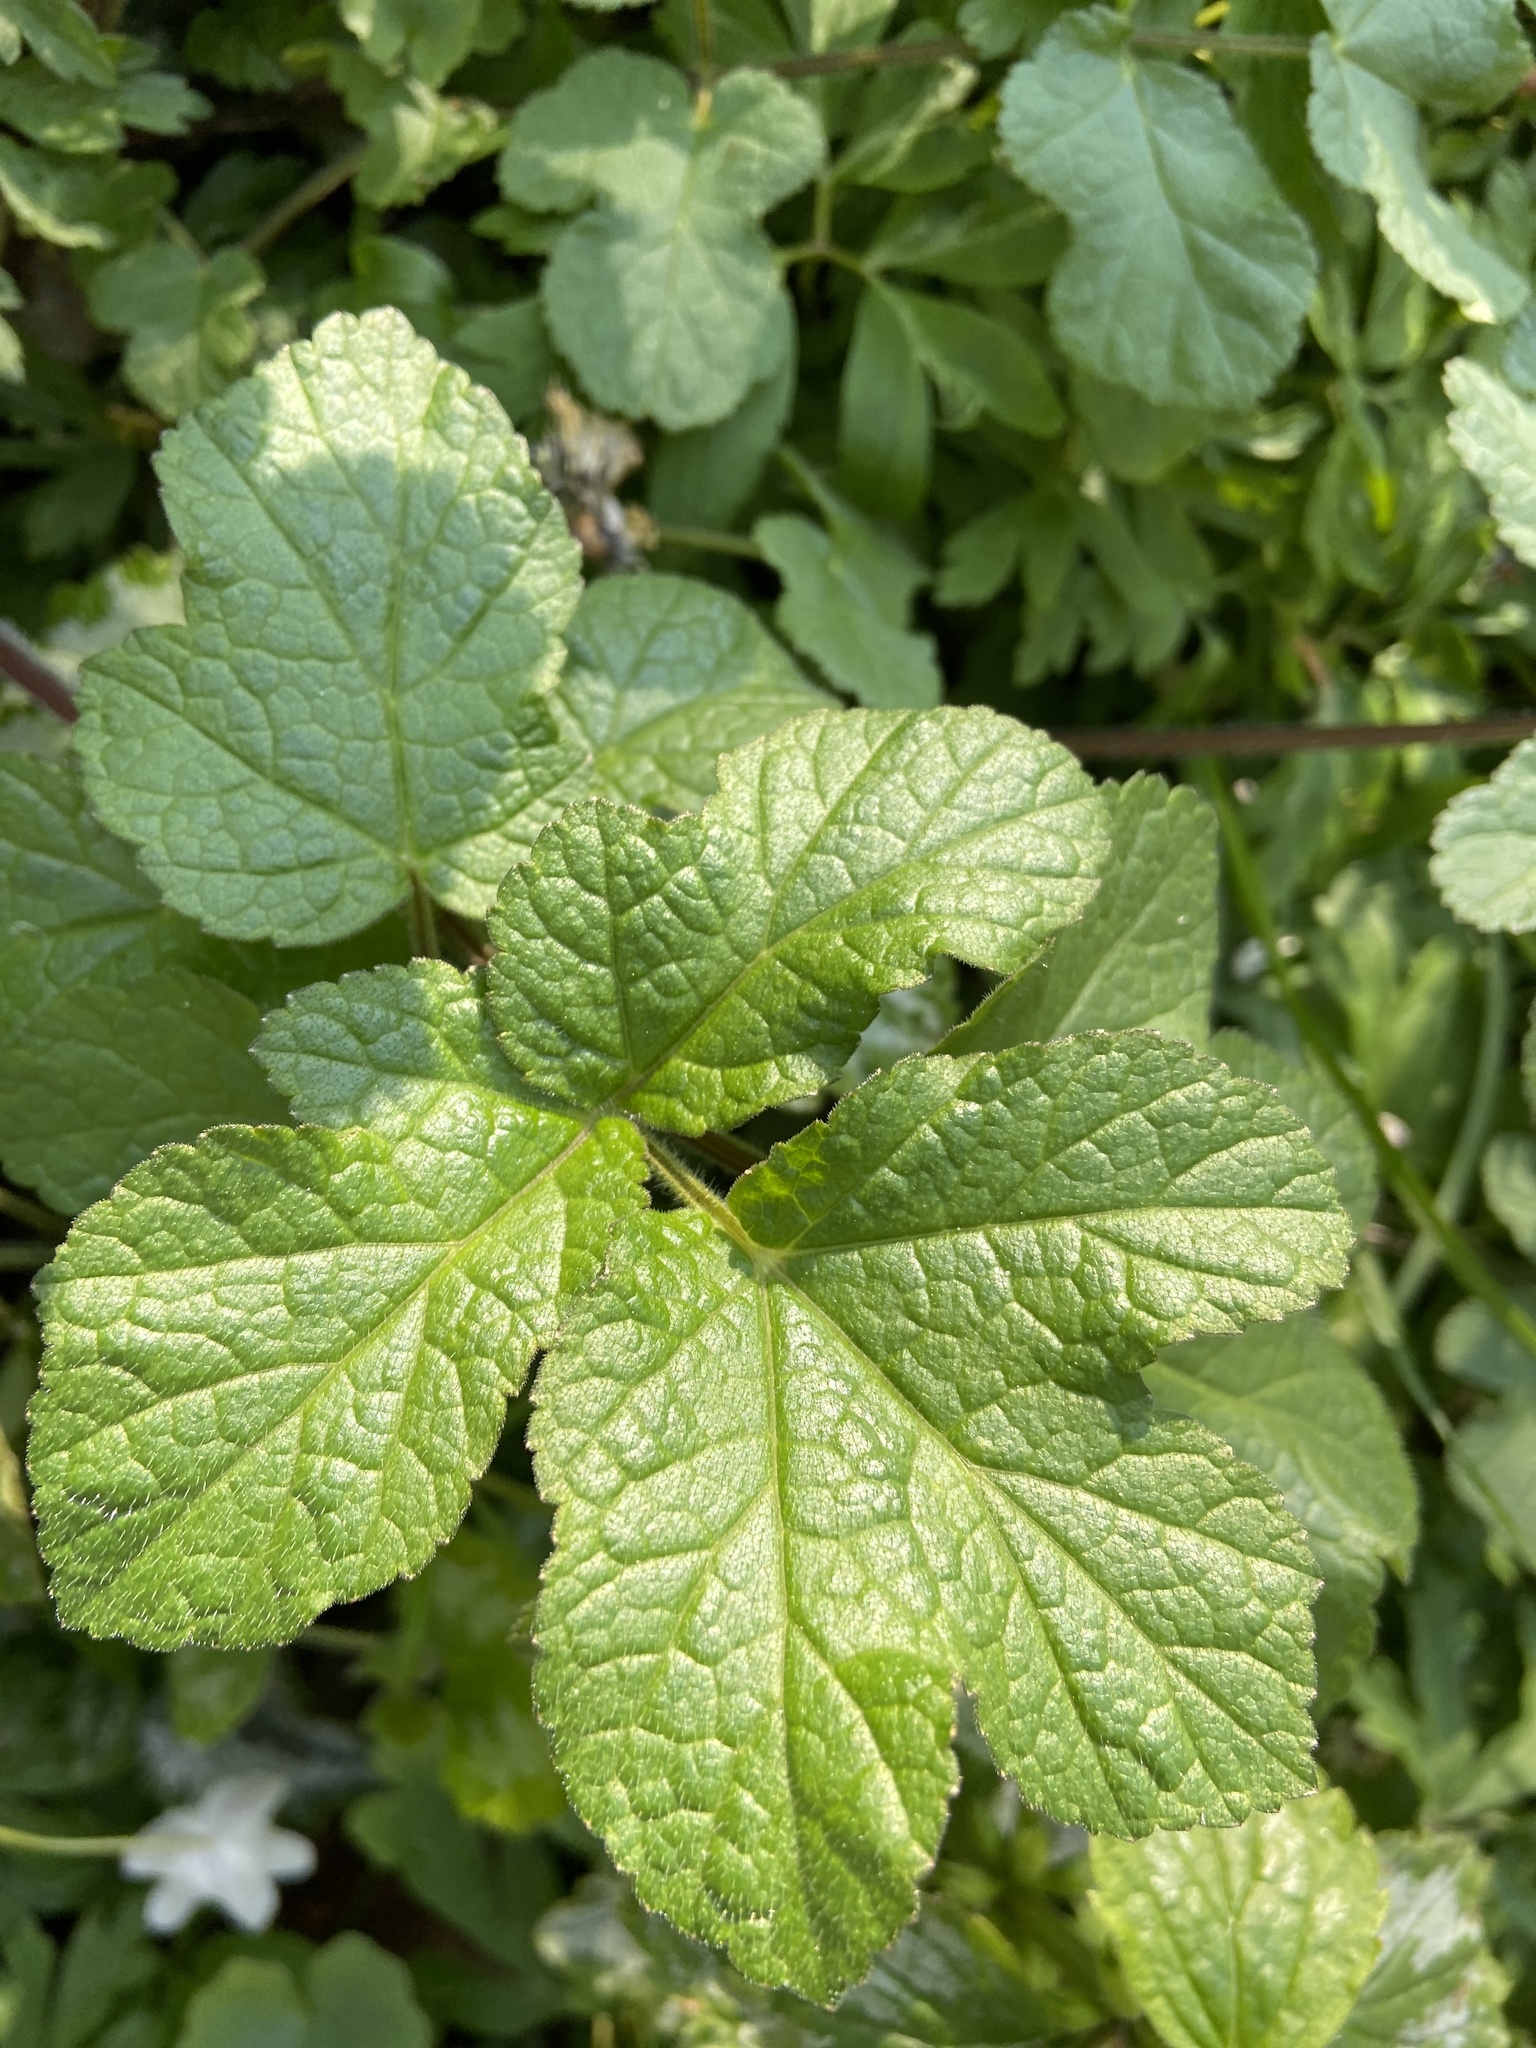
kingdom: Plantae
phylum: Tracheophyta
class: Magnoliopsida
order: Apiales
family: Apiaceae
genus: Heracleum
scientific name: Heracleum sphondylium
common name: Hogweed
